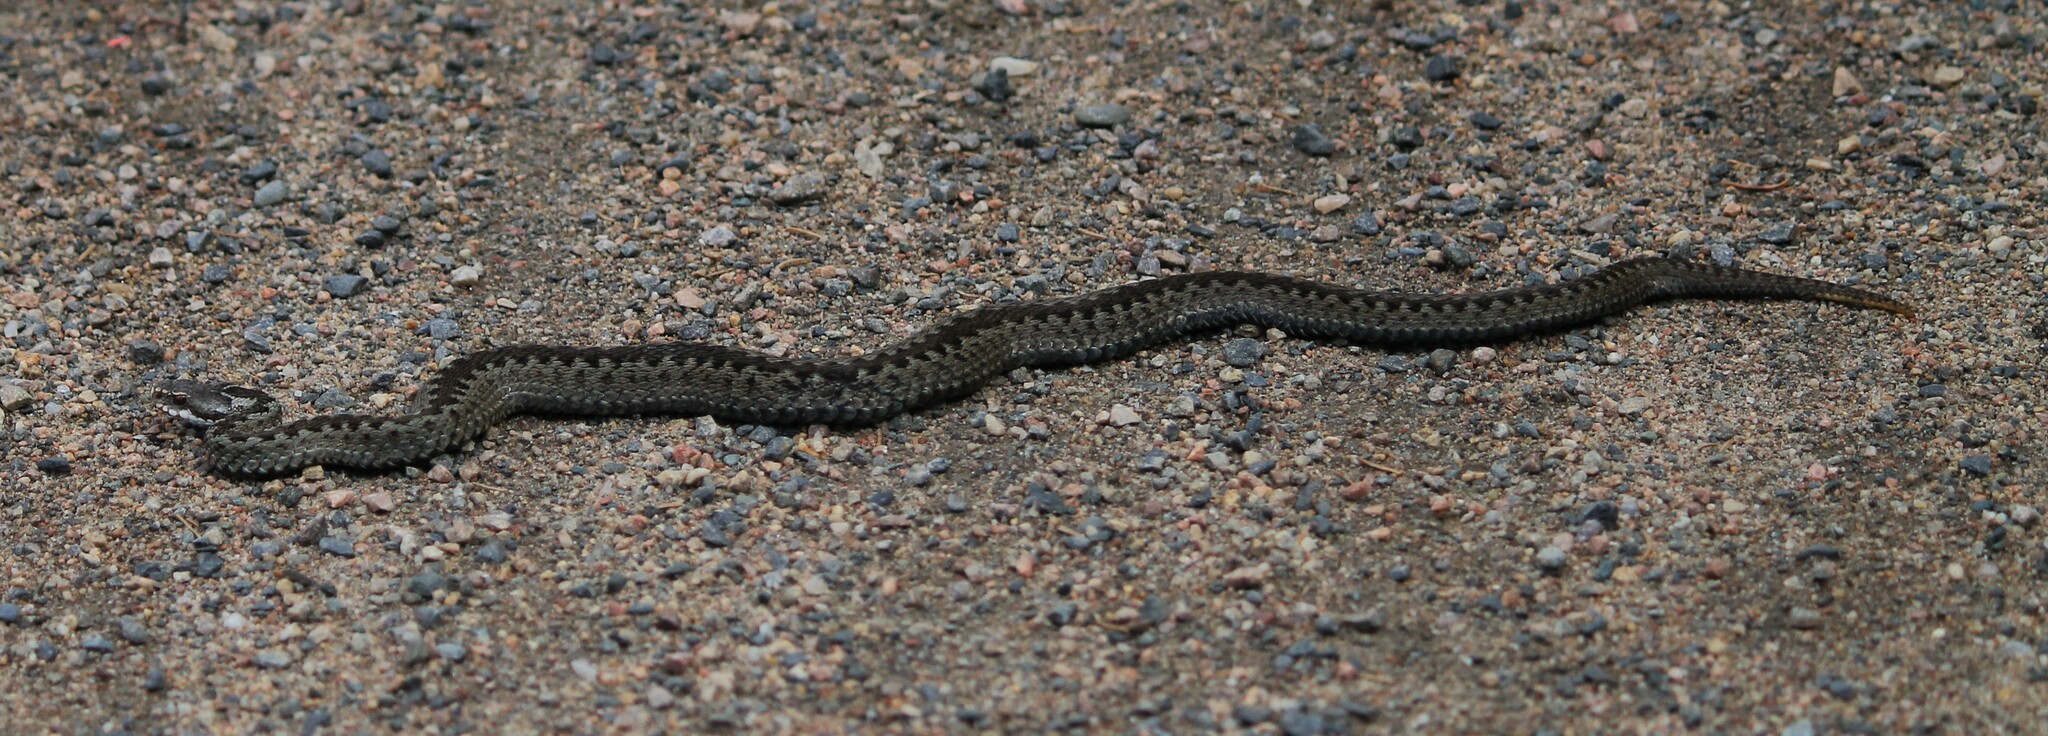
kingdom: Animalia
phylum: Chordata
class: Squamata
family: Viperidae
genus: Vipera
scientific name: Vipera berus
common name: Adder
